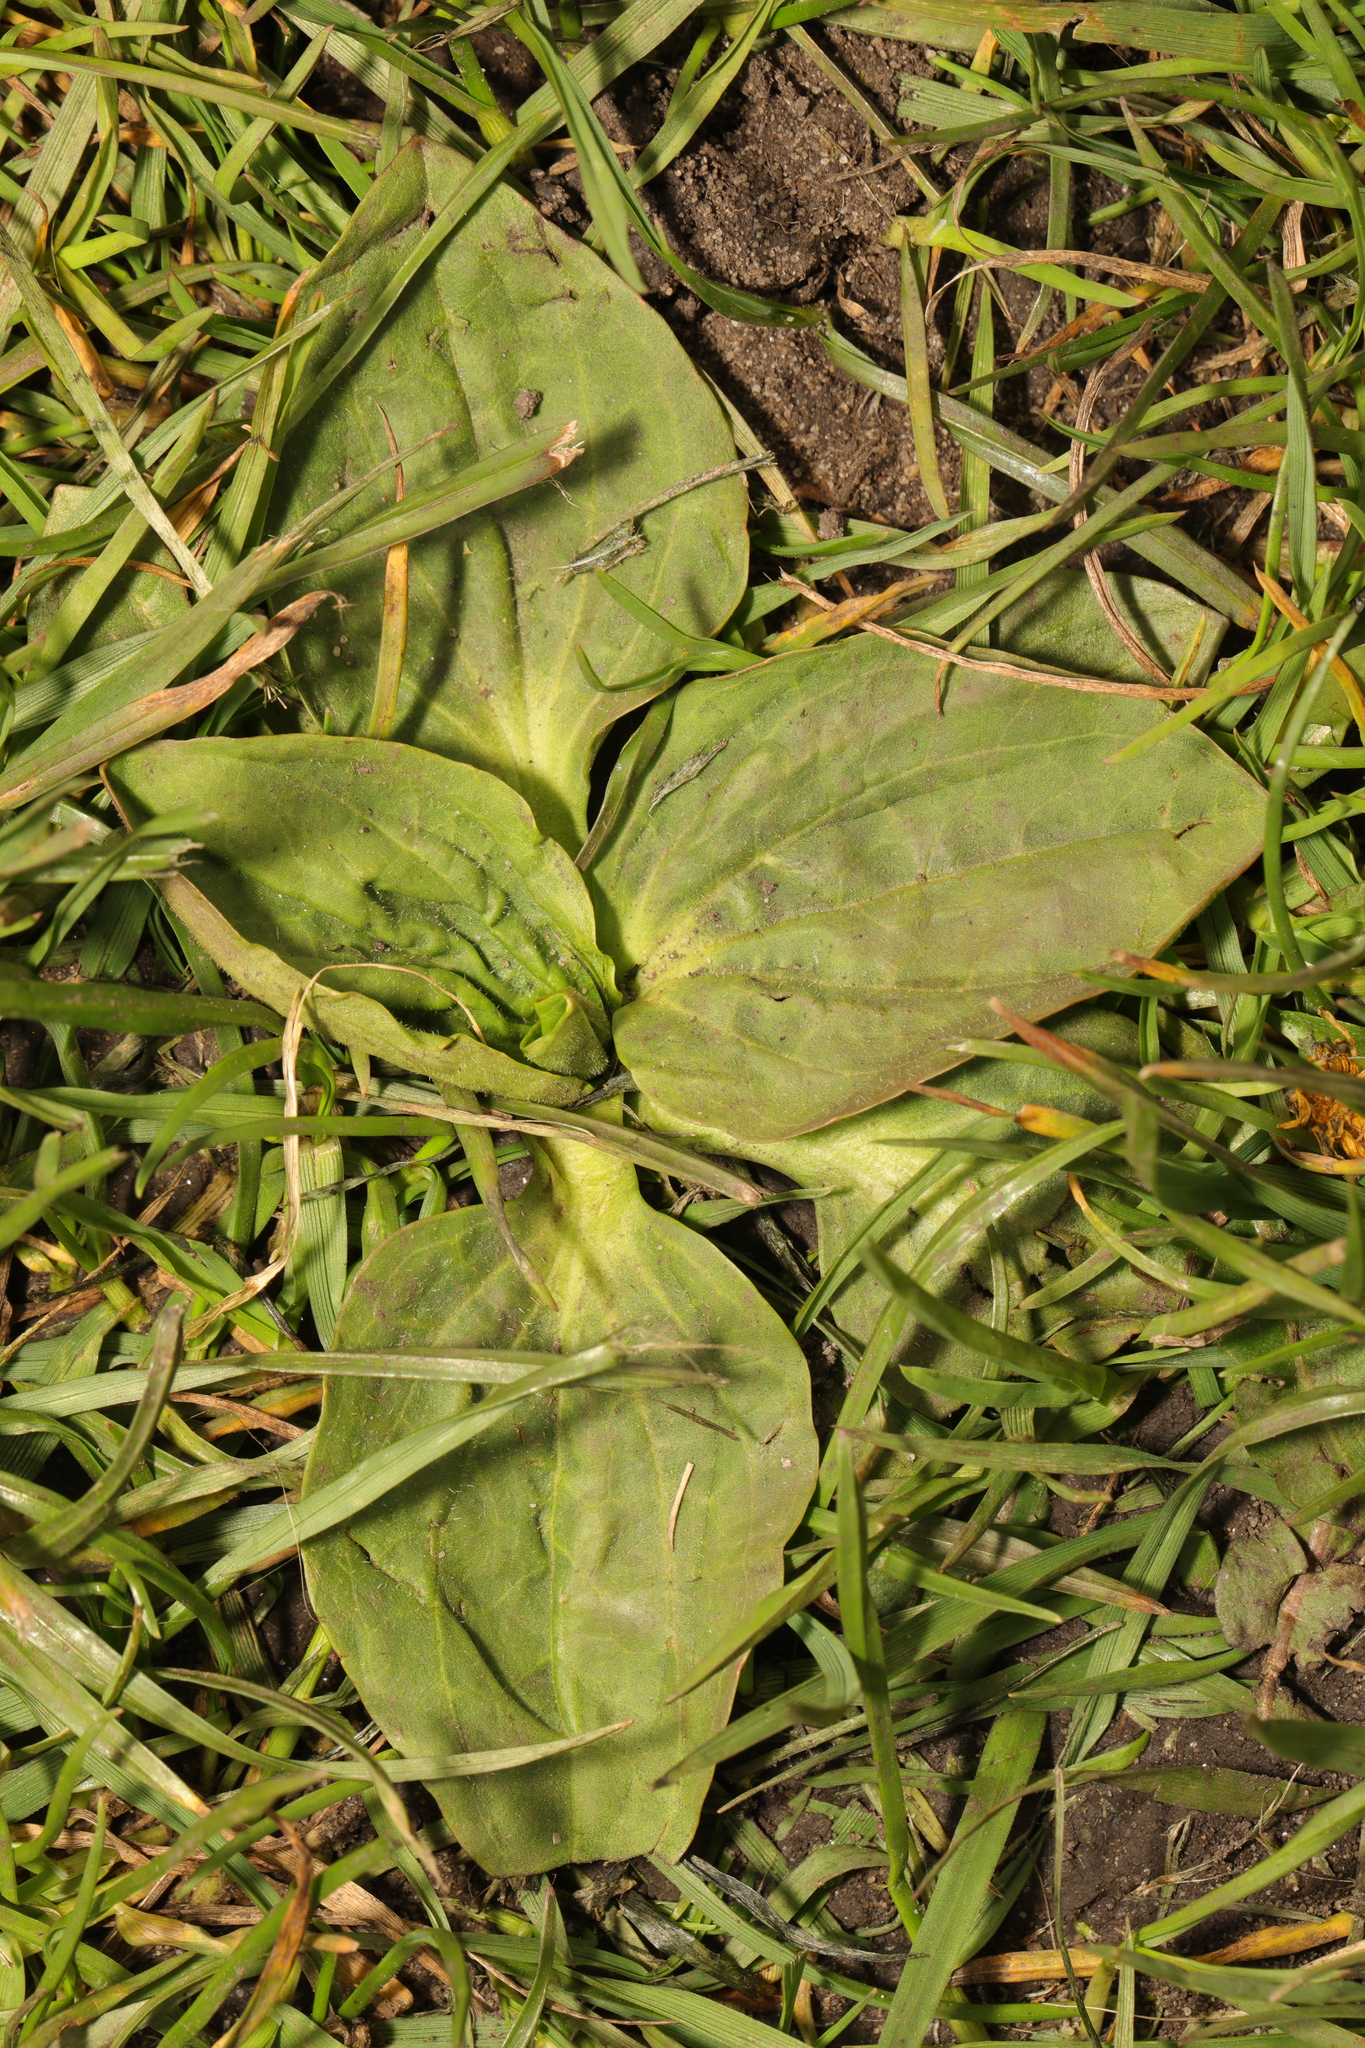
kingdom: Plantae
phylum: Tracheophyta
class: Magnoliopsida
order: Lamiales
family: Plantaginaceae
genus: Plantago
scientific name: Plantago major
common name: Common plantain
